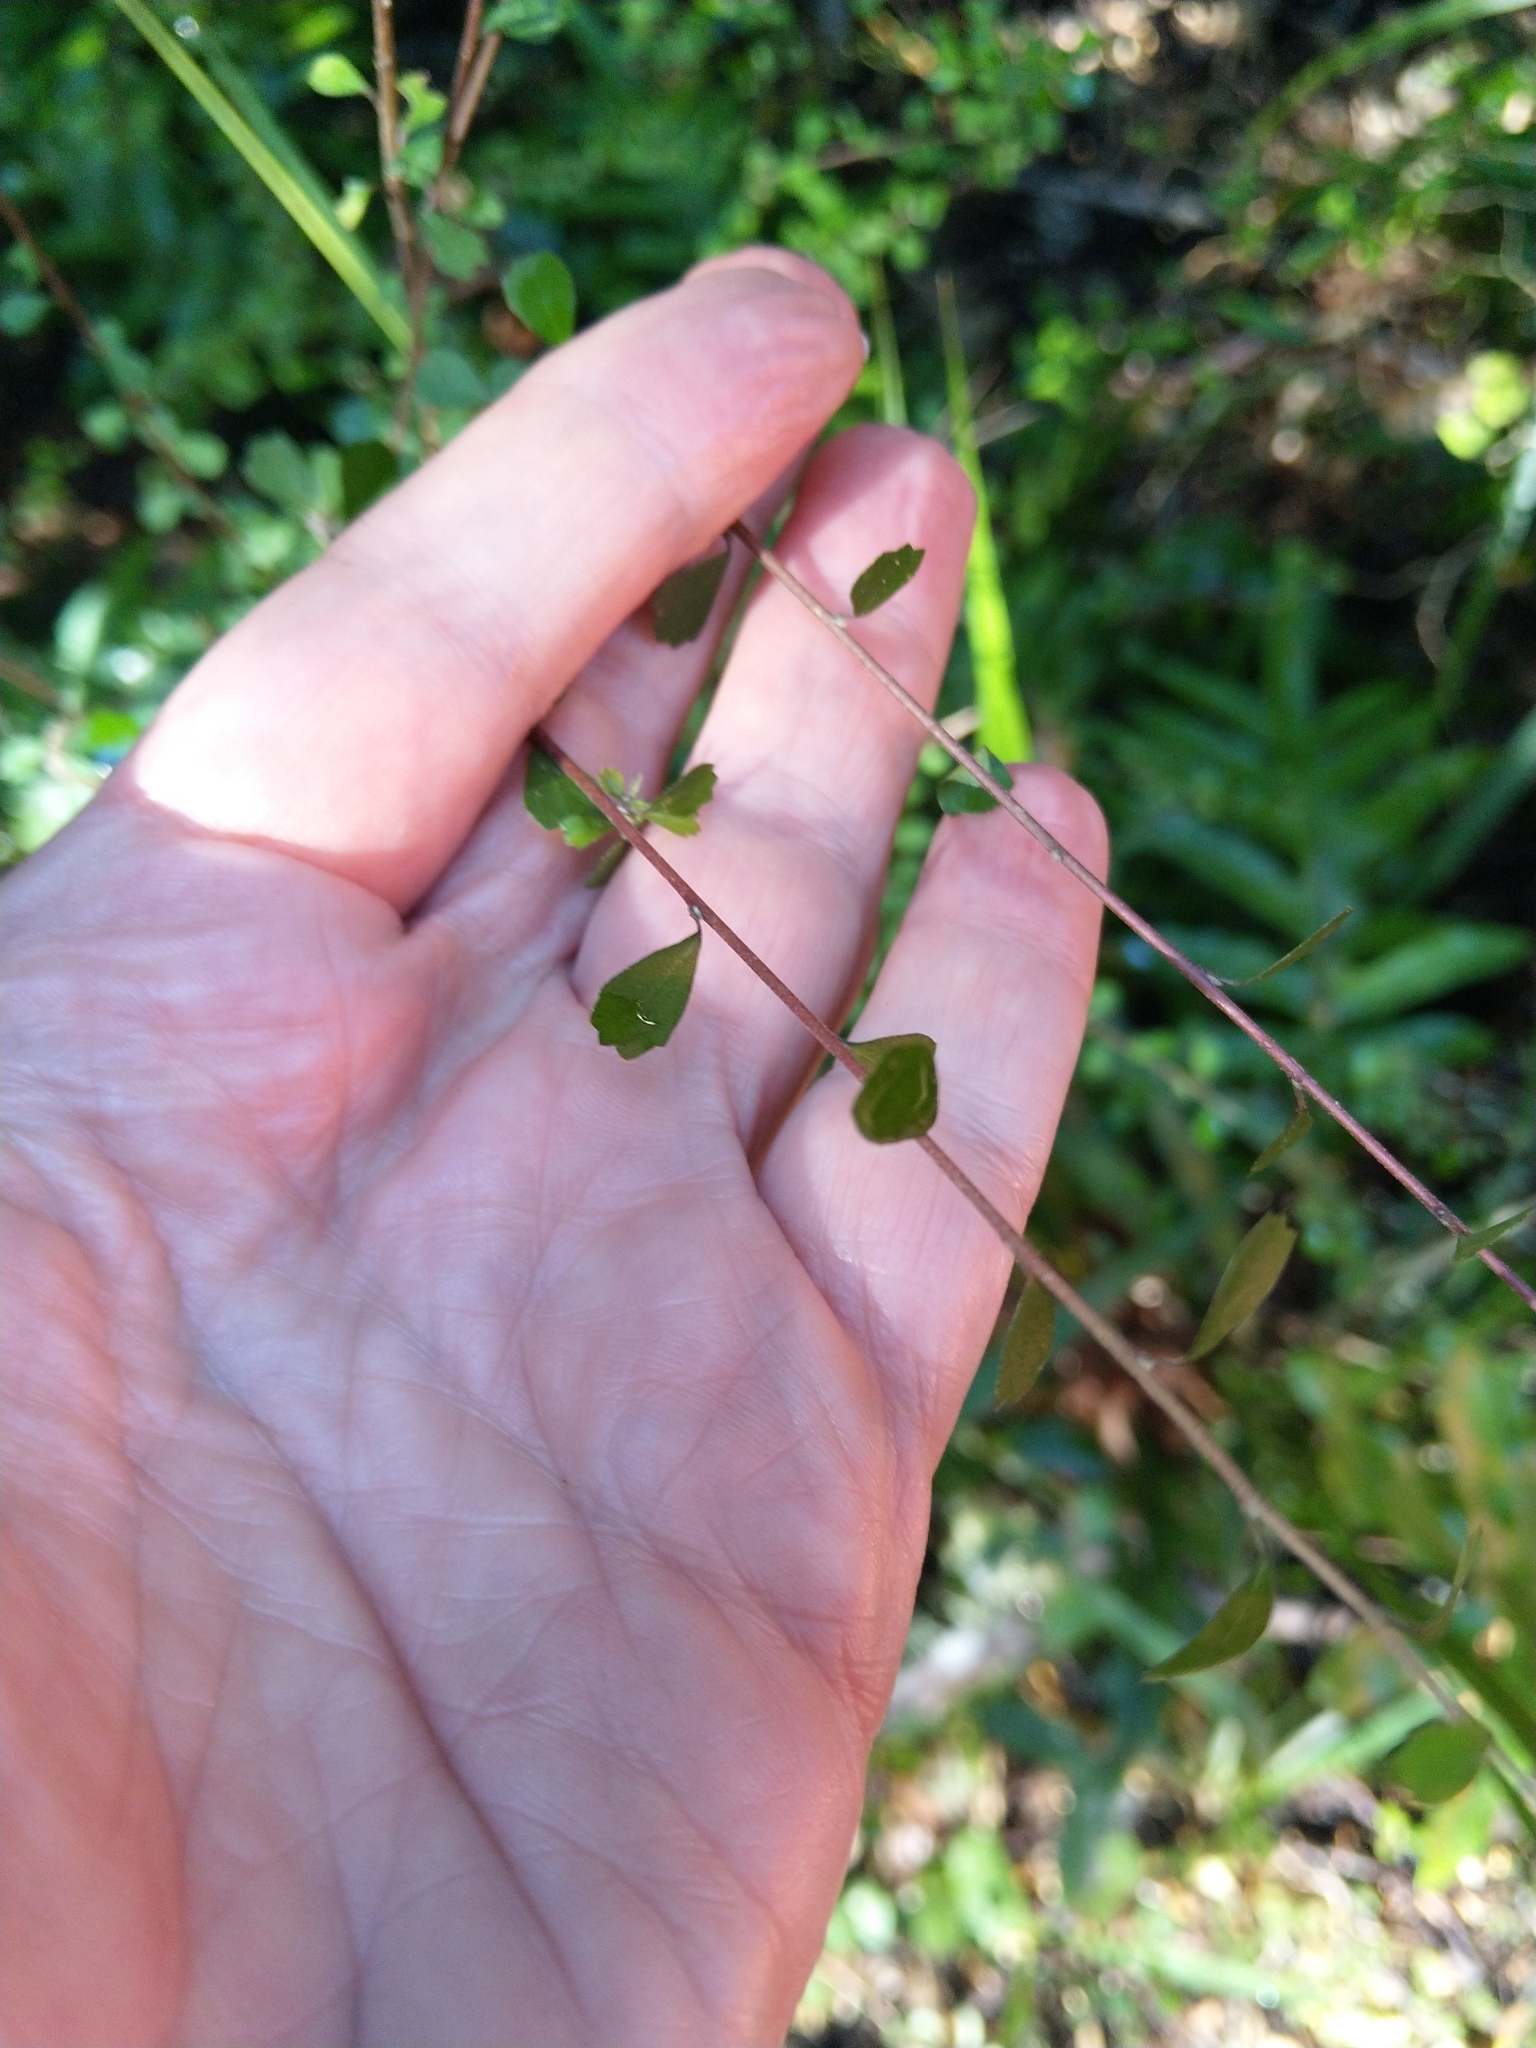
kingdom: Plantae
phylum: Tracheophyta
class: Magnoliopsida
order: Malvales
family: Malvaceae
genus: Hoheria
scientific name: Hoheria angustifolia
